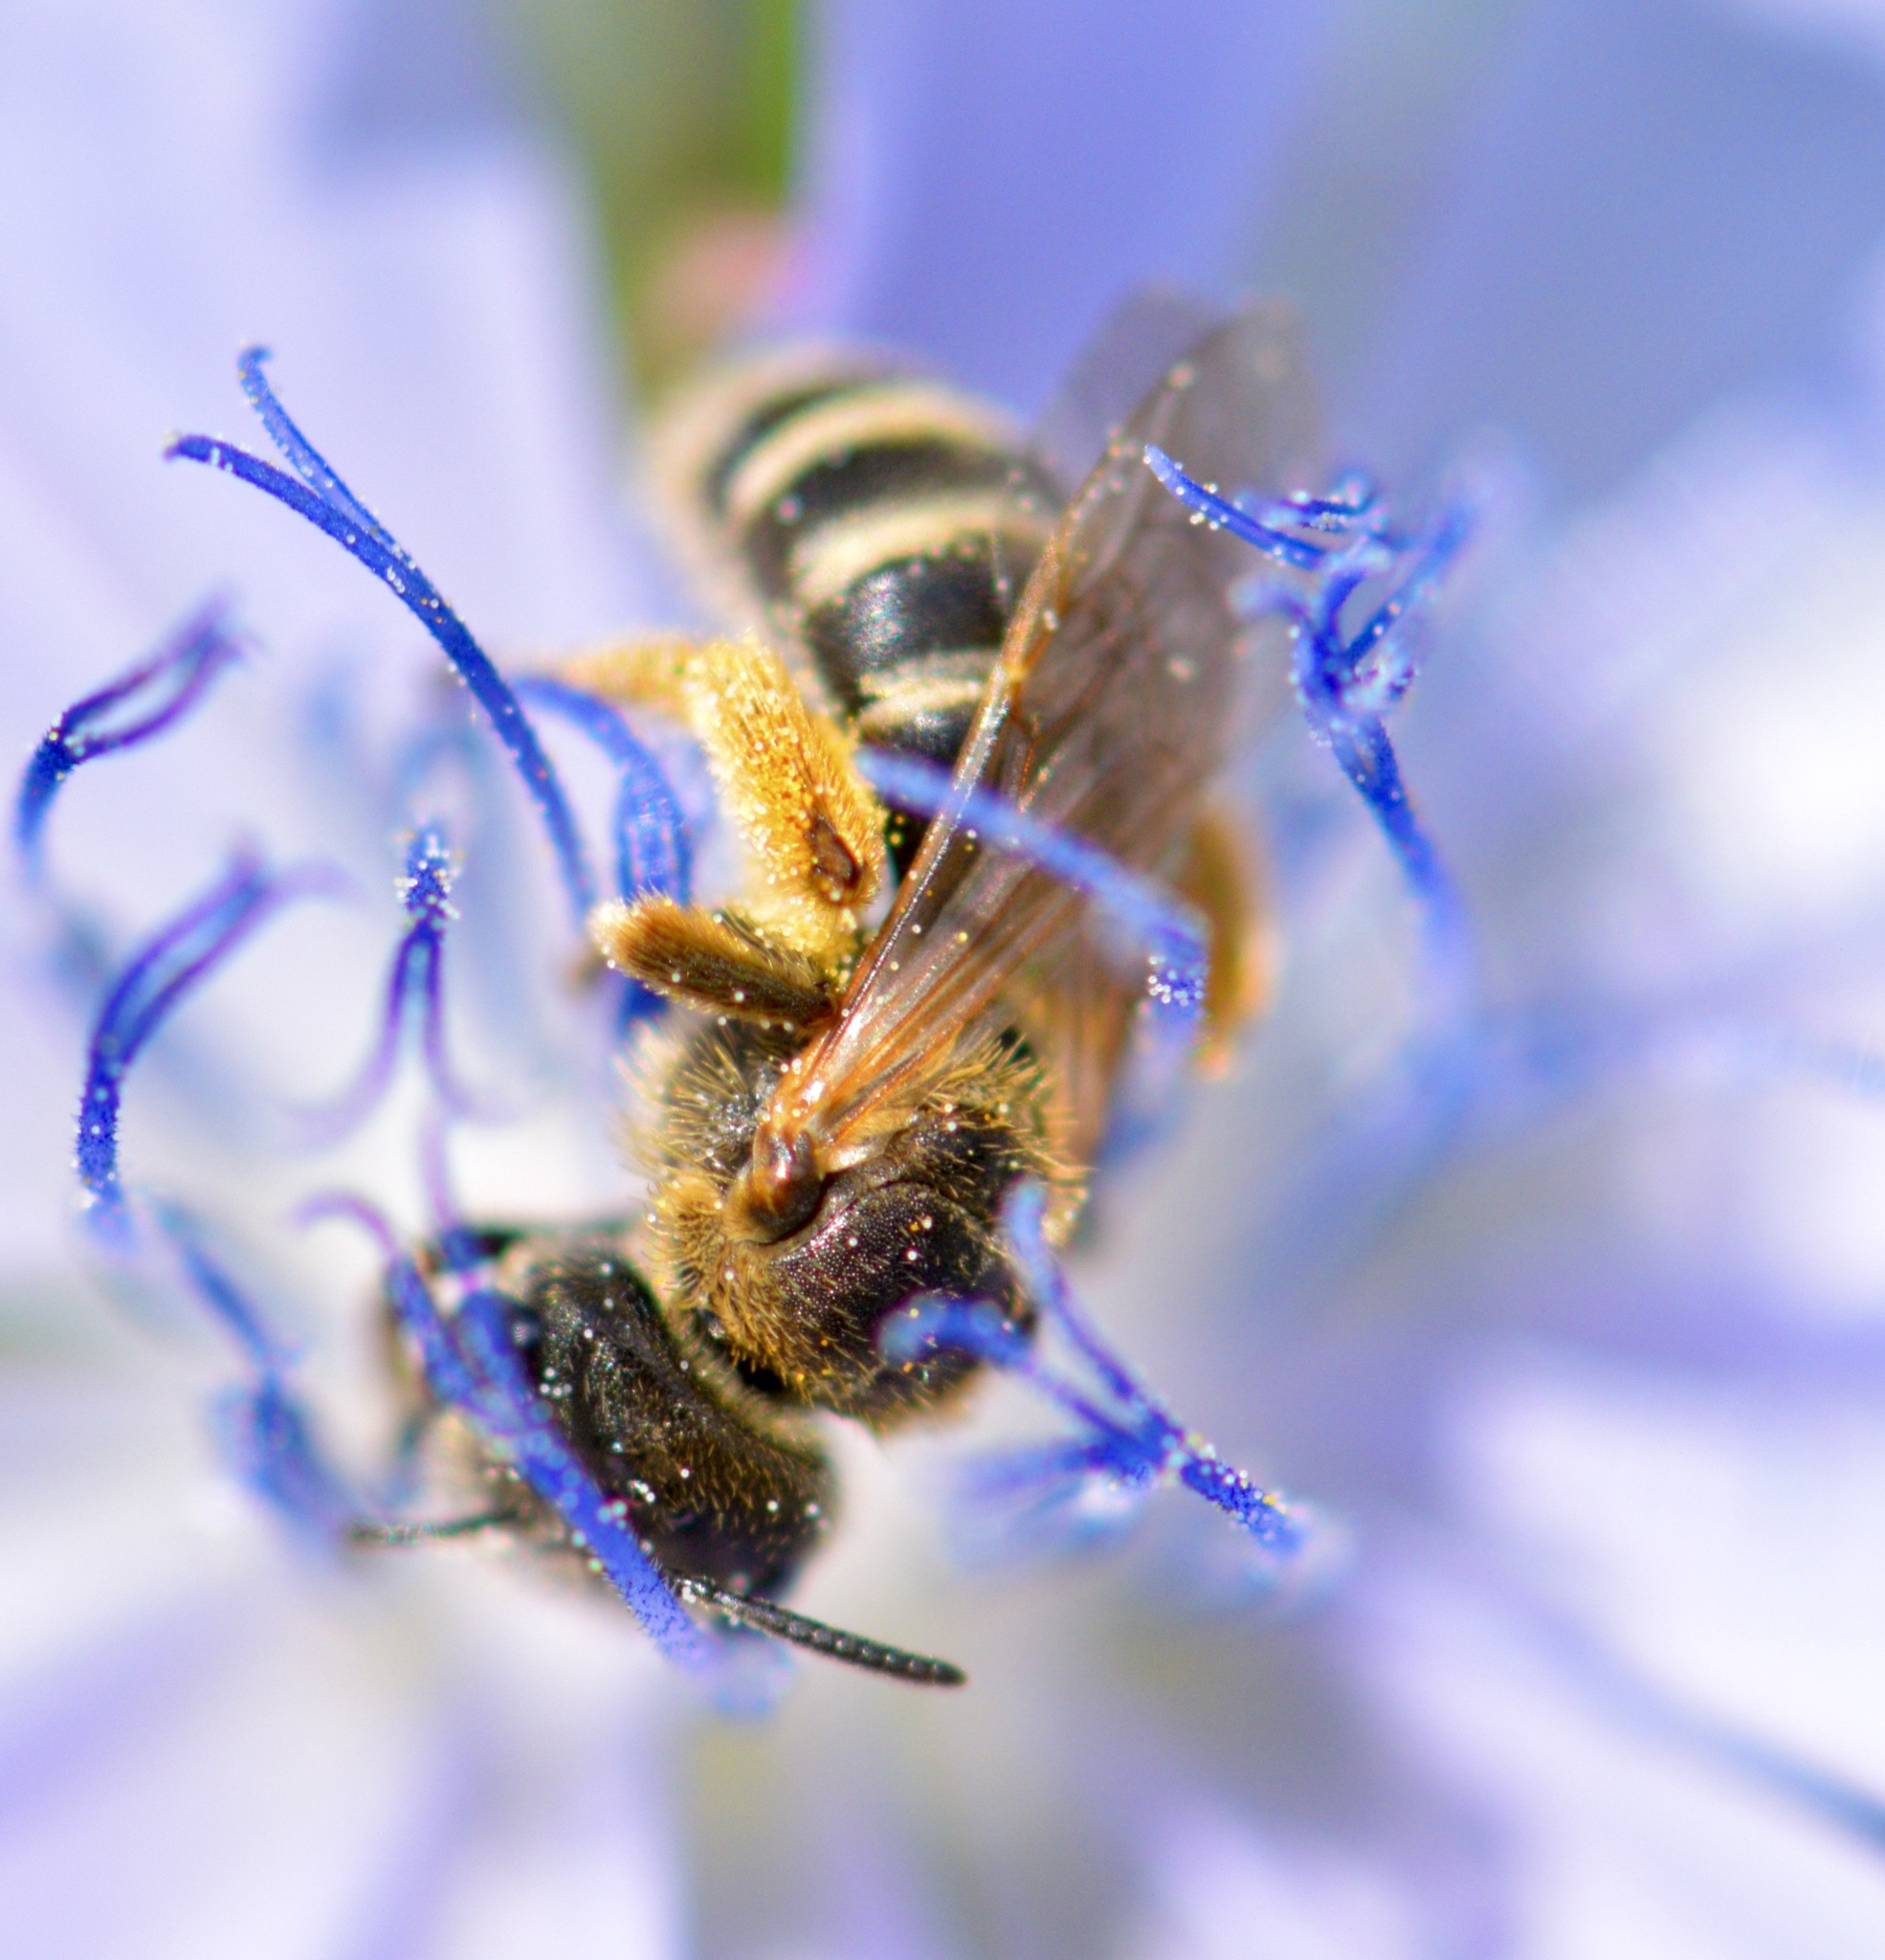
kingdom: Animalia
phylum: Arthropoda
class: Insecta
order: Hymenoptera
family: Halictidae
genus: Halictus
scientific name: Halictus ligatus
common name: Ligated furrow bee
